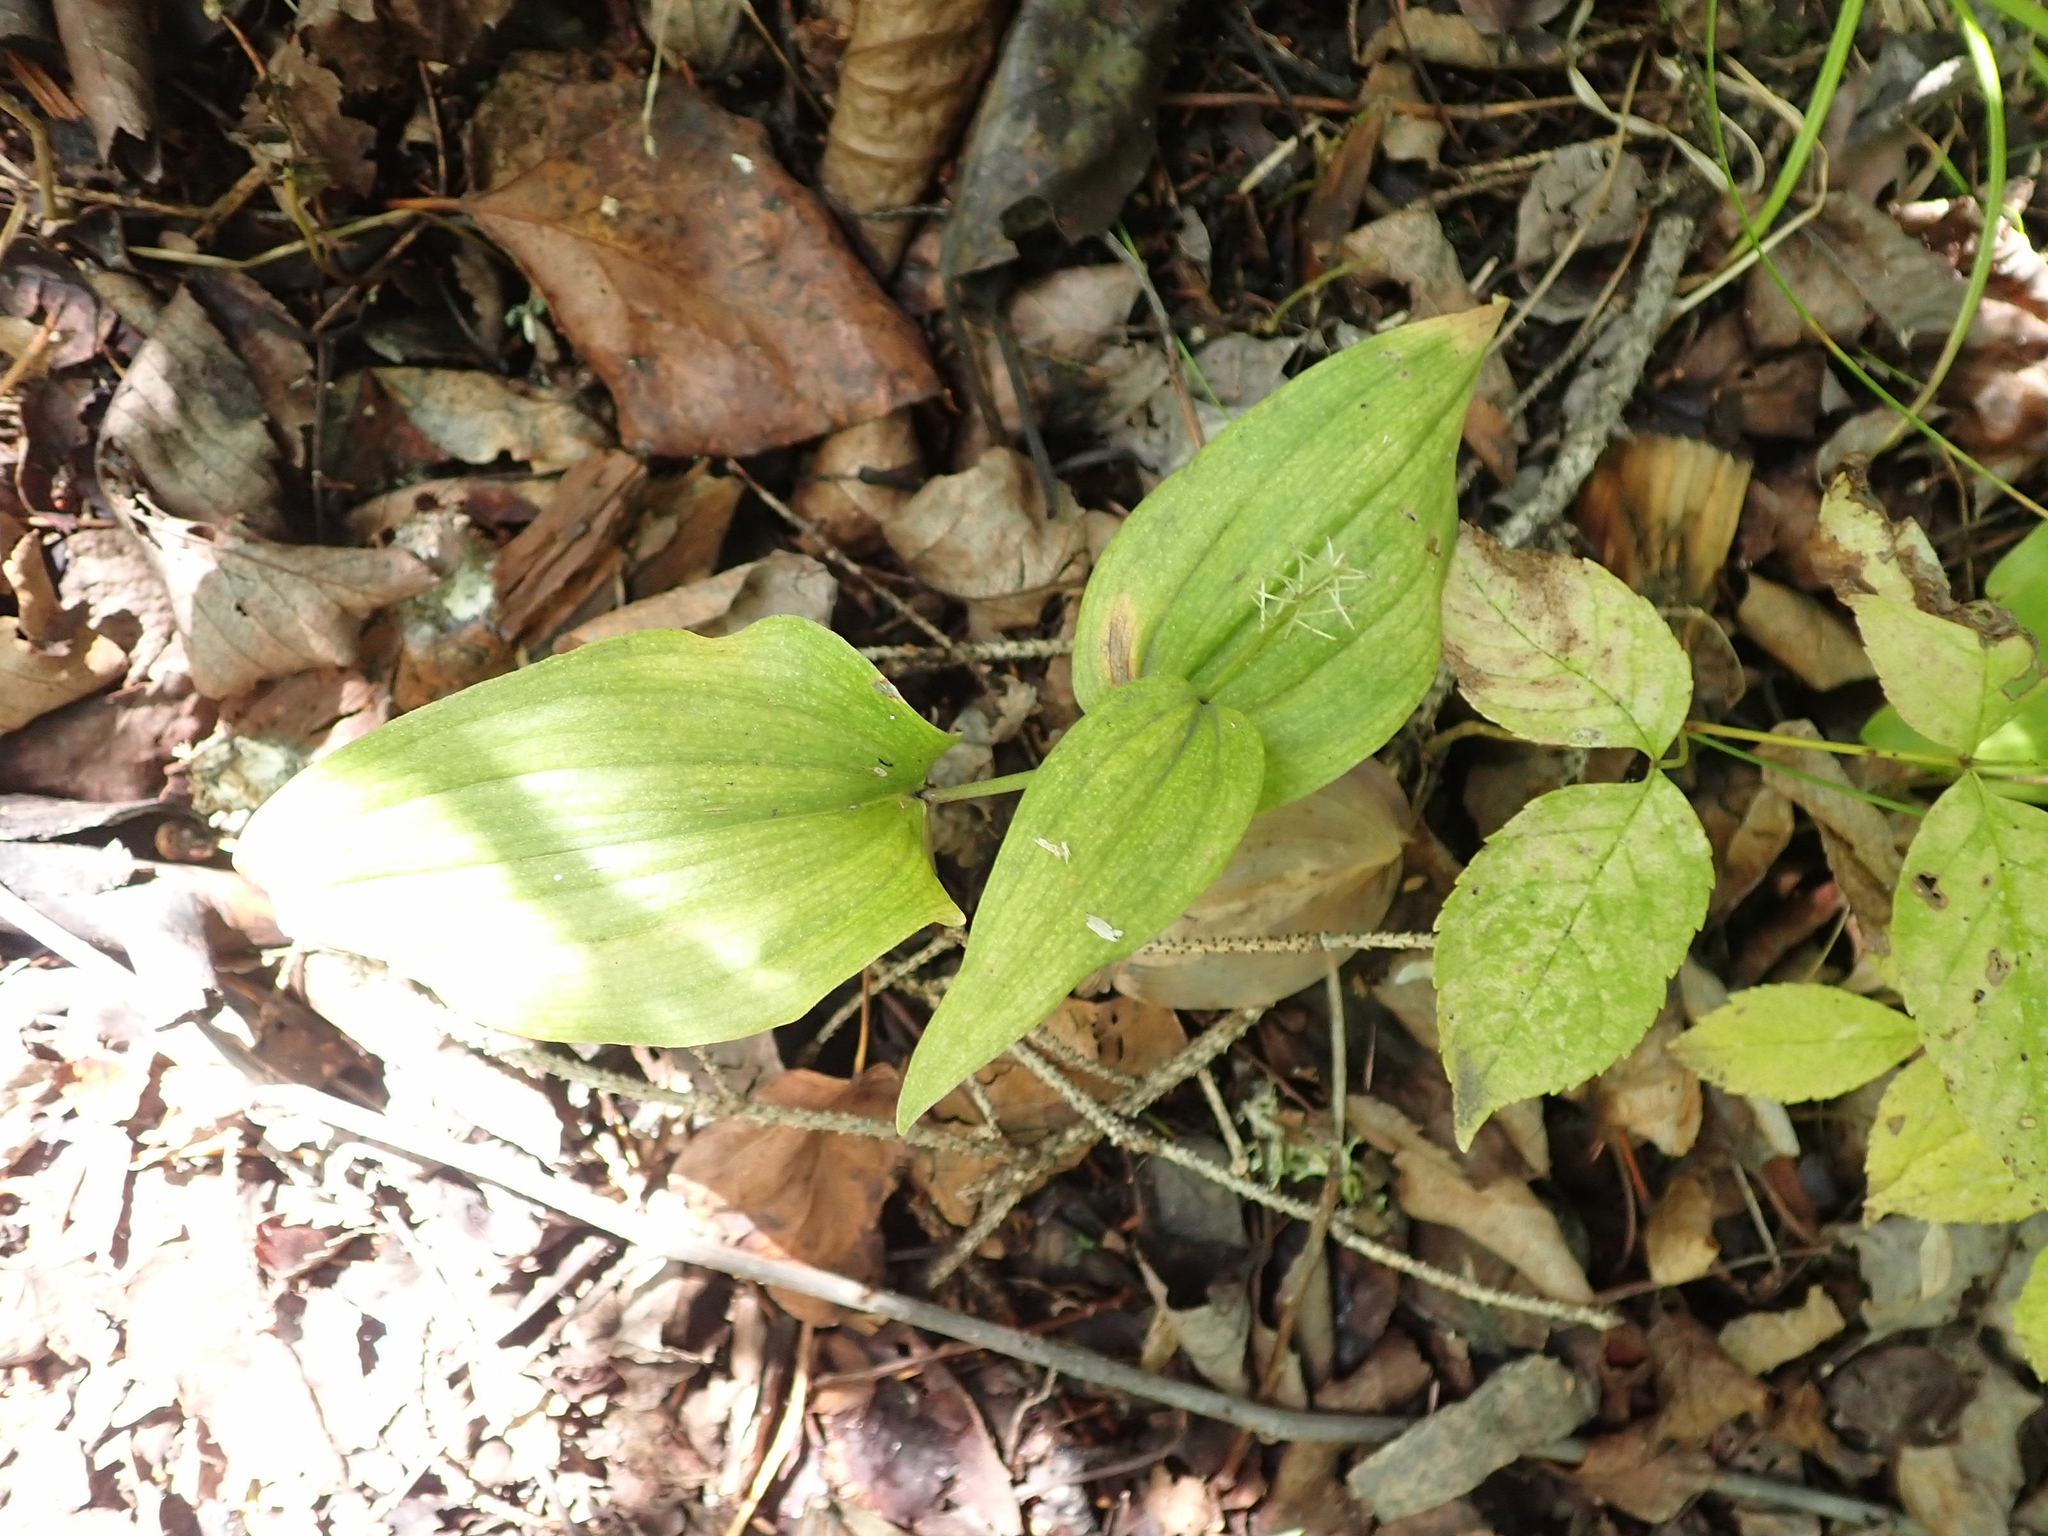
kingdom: Plantae
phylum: Tracheophyta
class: Liliopsida
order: Asparagales
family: Asparagaceae
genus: Maianthemum
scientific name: Maianthemum canadense
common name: False lily-of-the-valley
